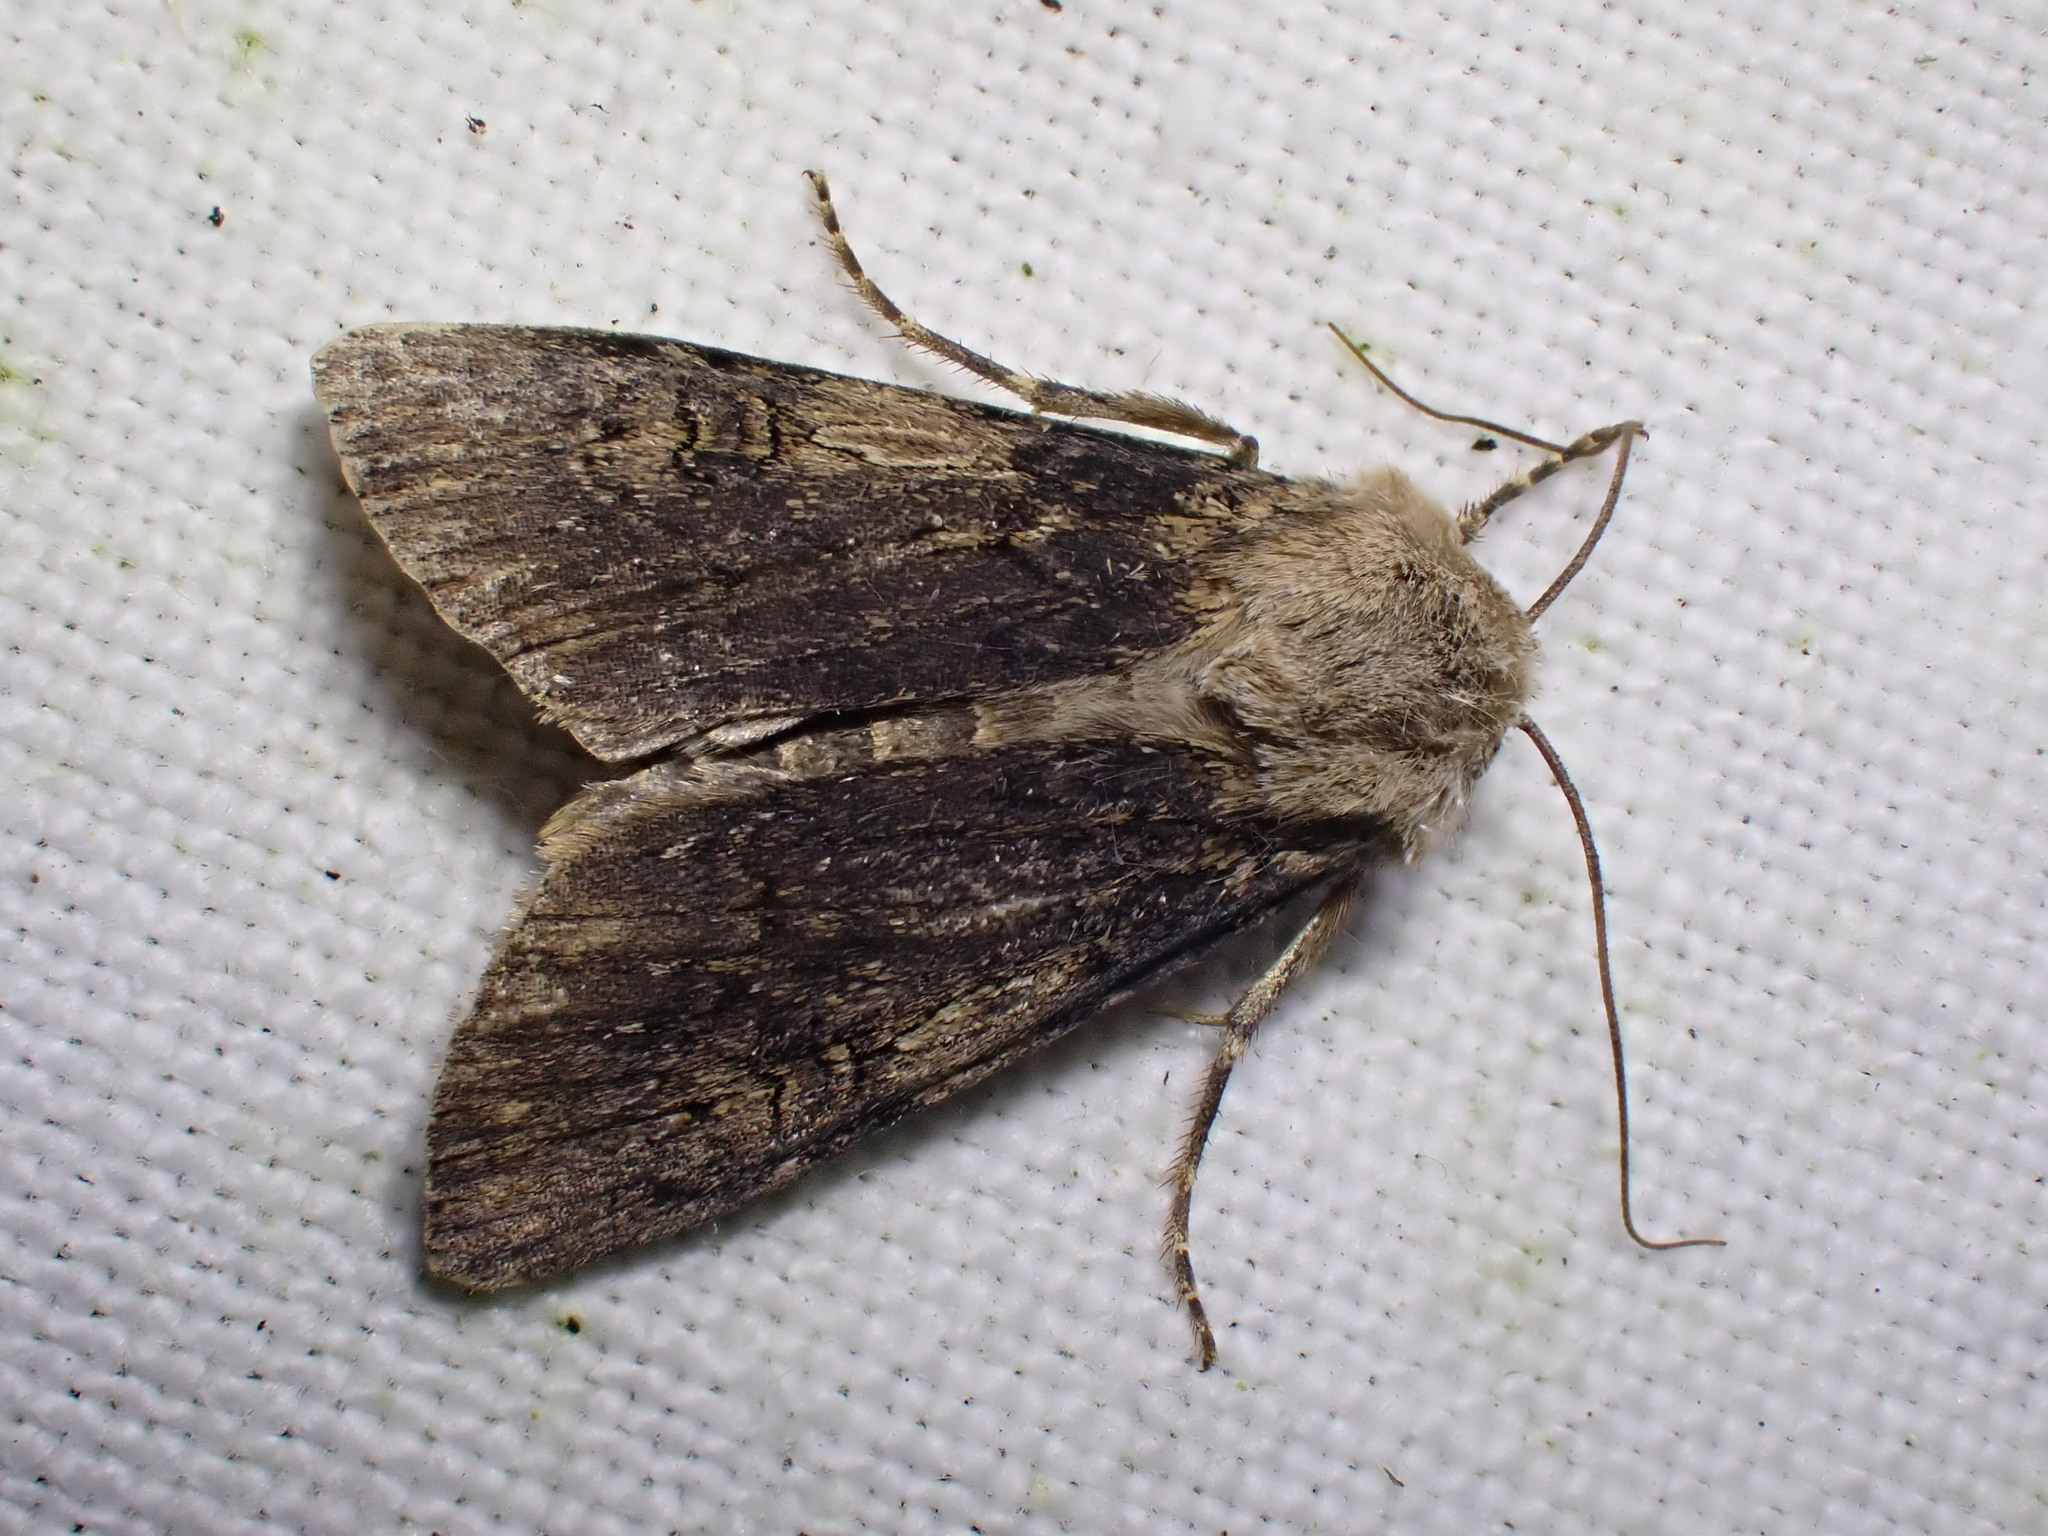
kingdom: Animalia
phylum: Arthropoda
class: Insecta
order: Lepidoptera
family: Noctuidae
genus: Agrotis
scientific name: Agrotis puta
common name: Shuttle-shaped dart
